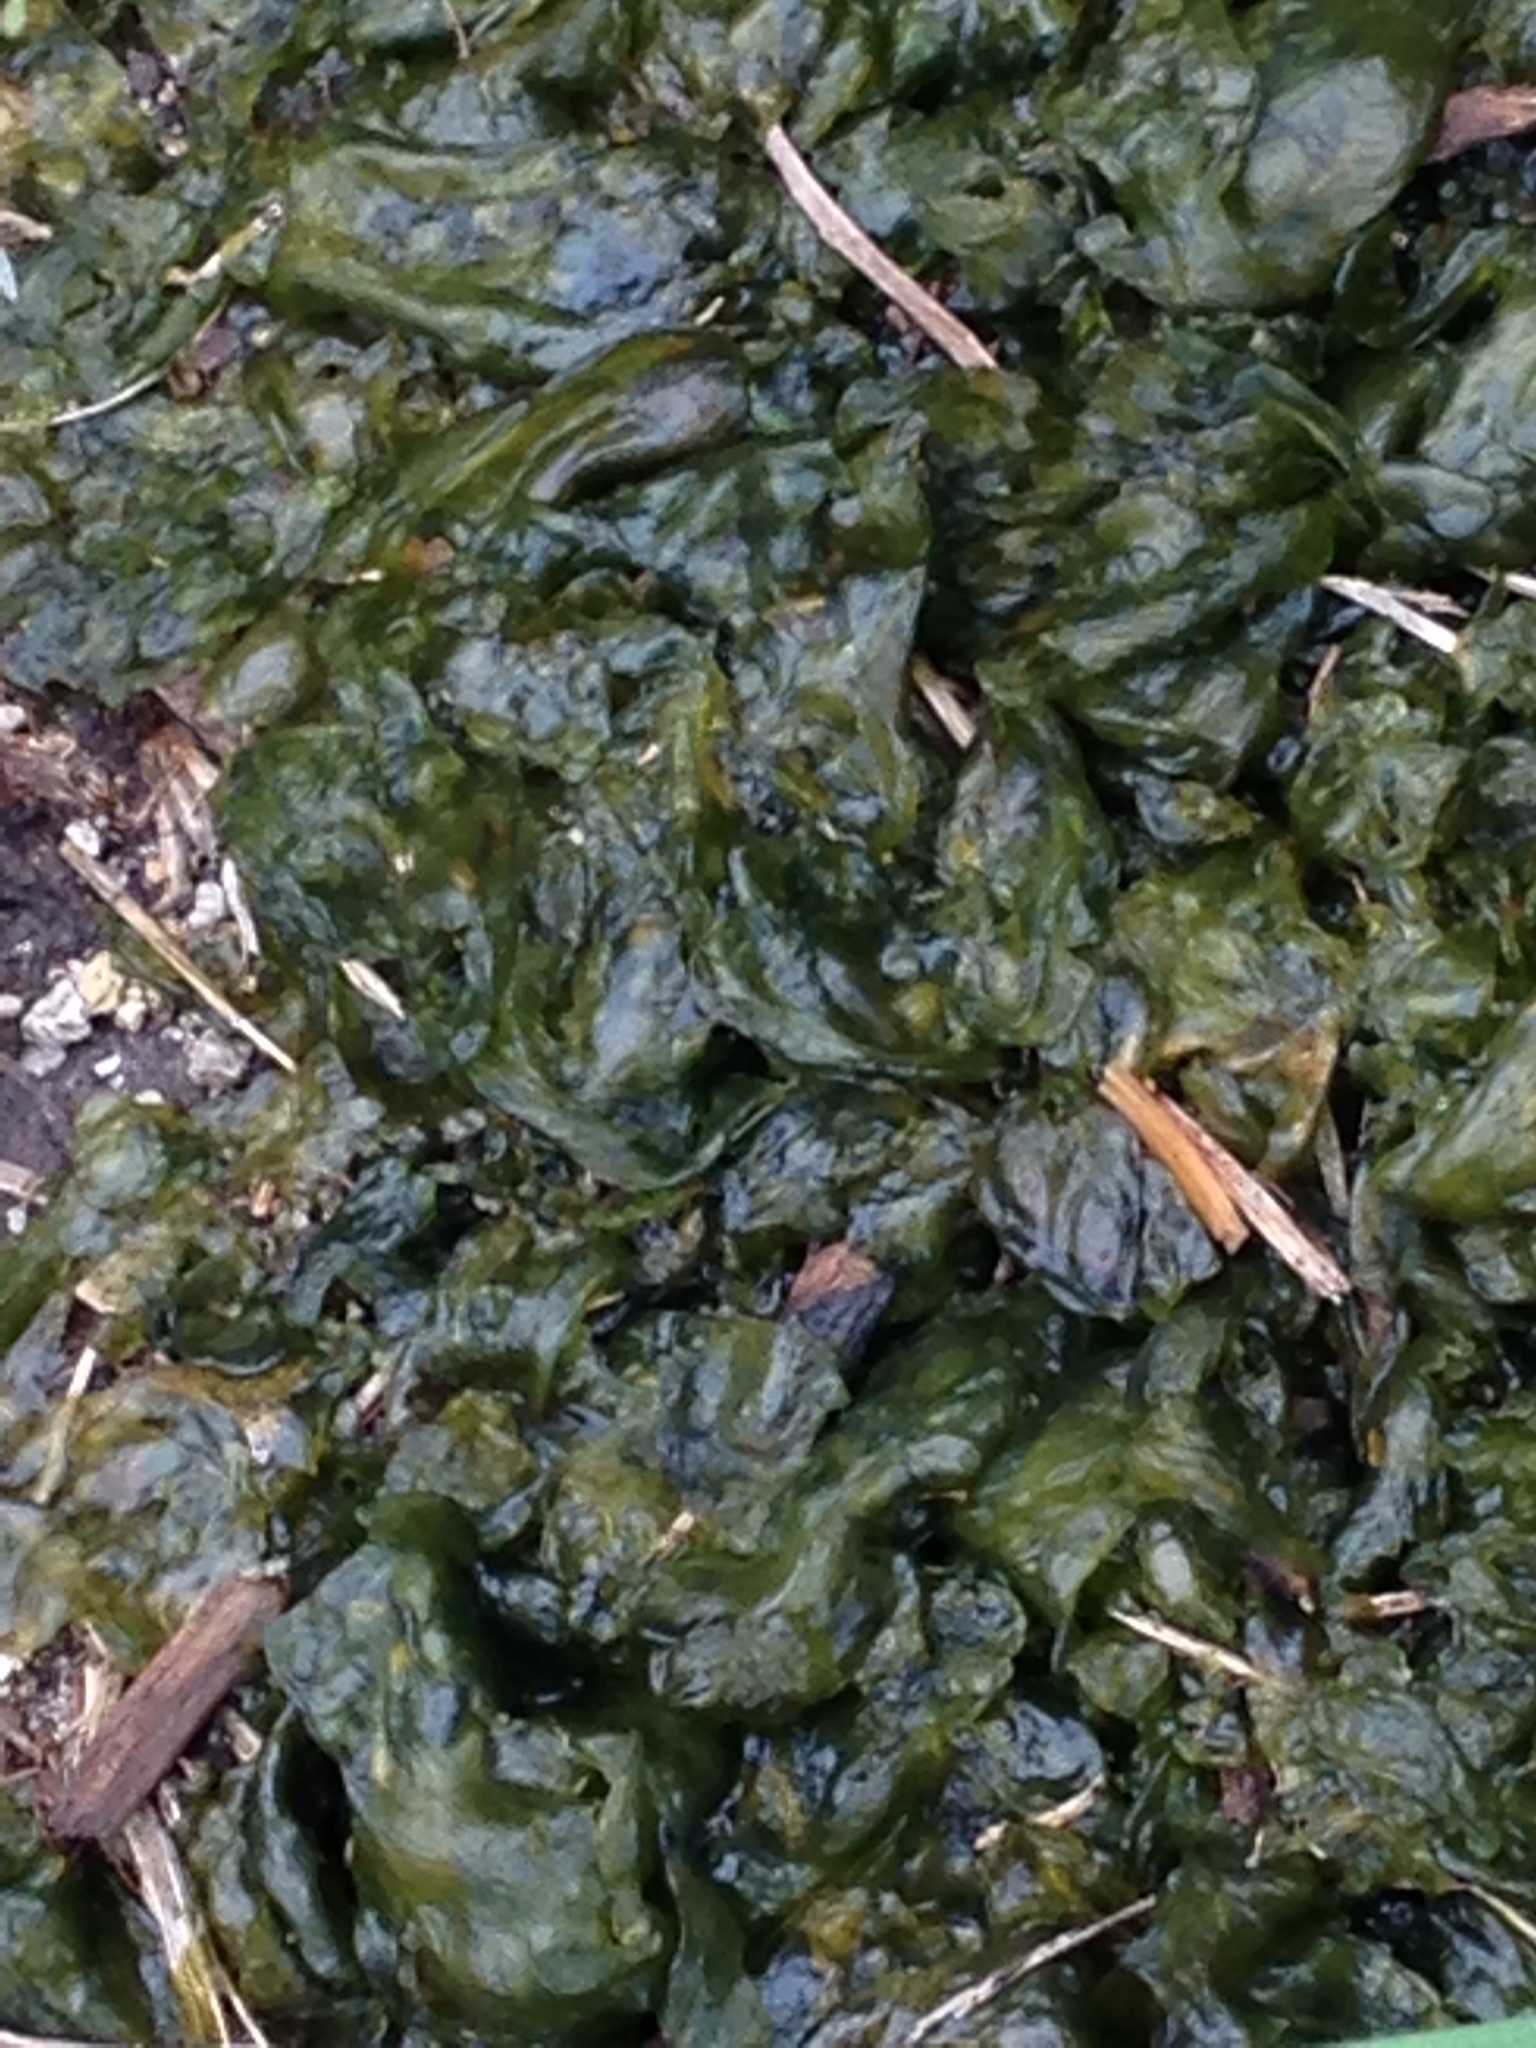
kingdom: Bacteria
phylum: Cyanobacteria
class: Cyanobacteriia
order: Cyanobacteriales
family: Nostocaceae
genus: Nostoc
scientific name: Nostoc commune
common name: Star jelly
